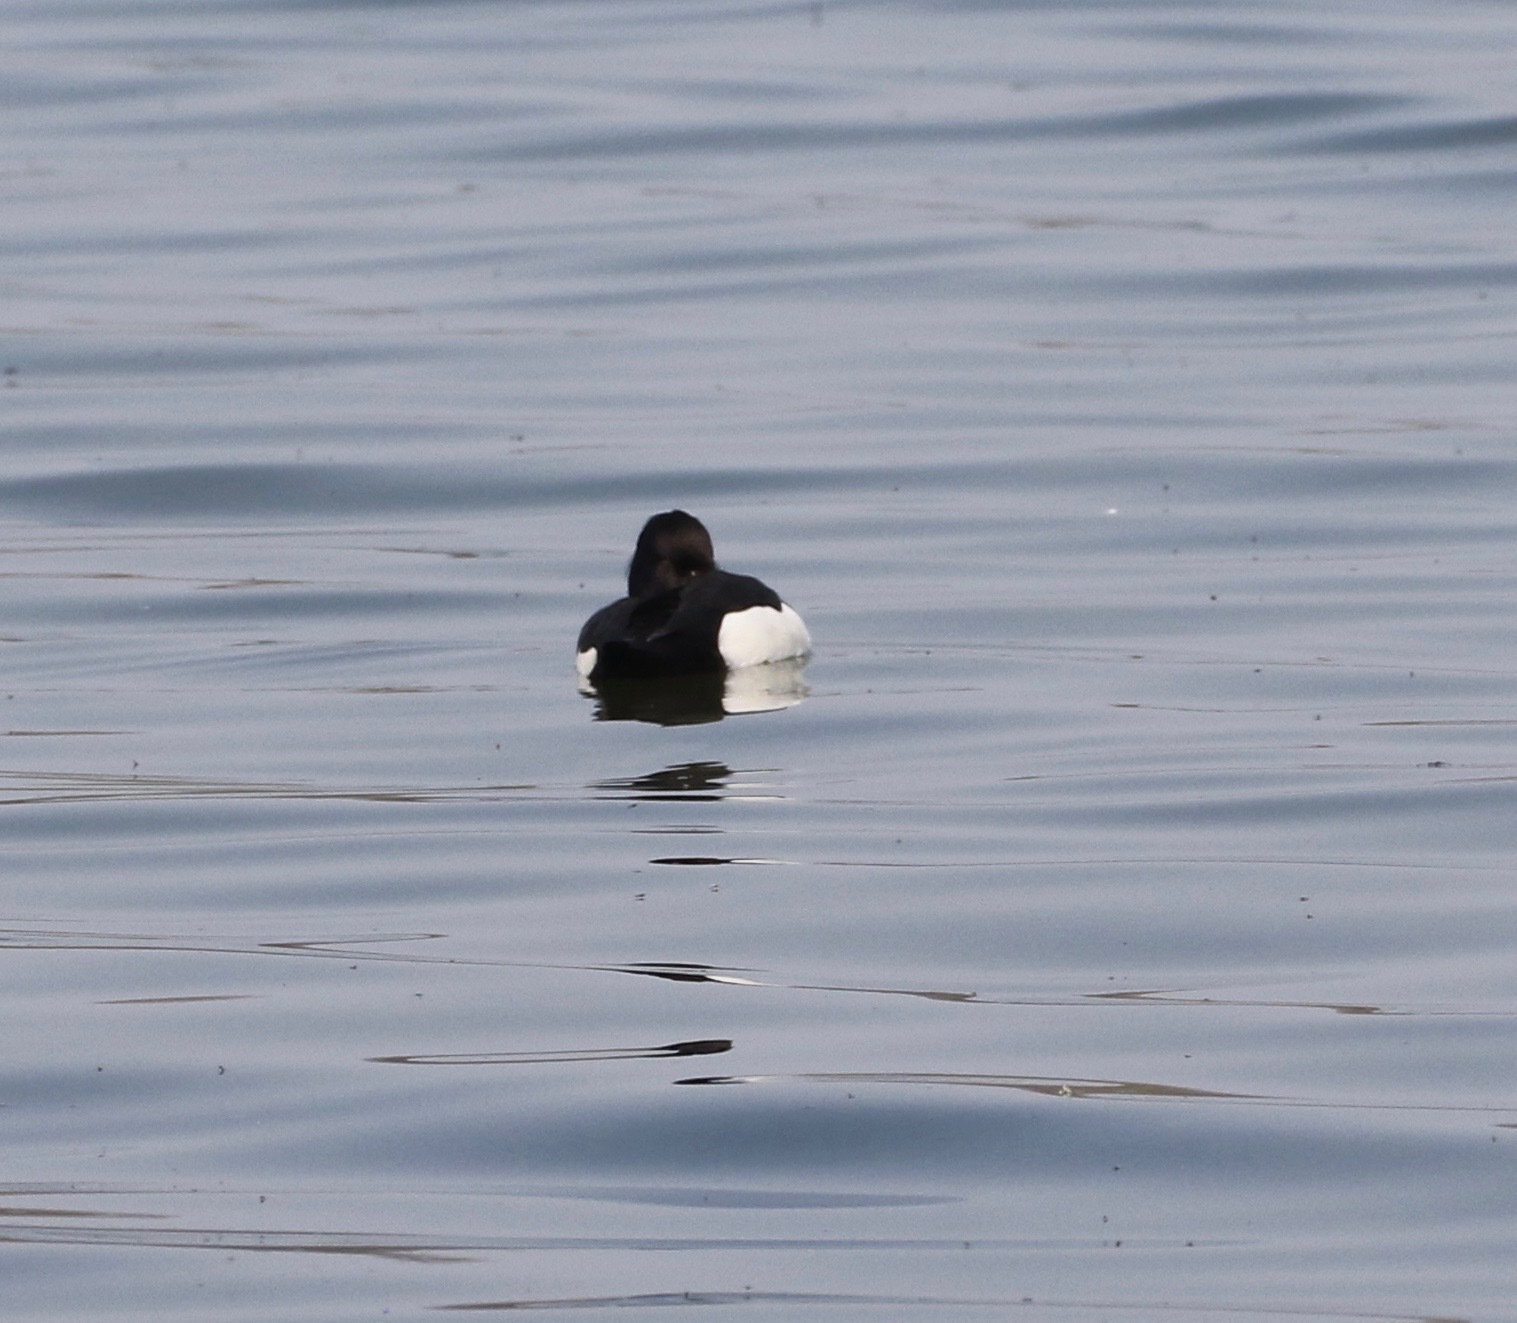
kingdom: Animalia
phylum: Chordata
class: Aves
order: Anseriformes
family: Anatidae
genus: Aythya
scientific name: Aythya fuligula
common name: Tufted duck
